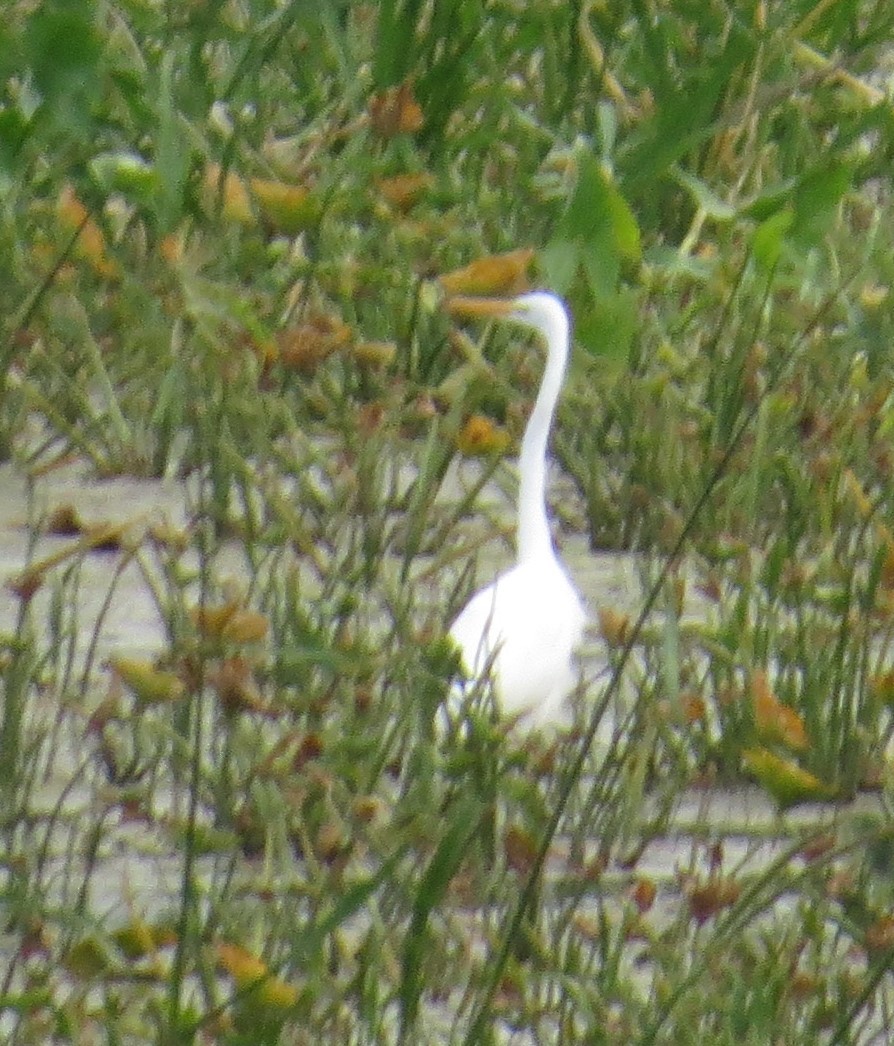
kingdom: Animalia
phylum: Chordata
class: Aves
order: Pelecaniformes
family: Ardeidae
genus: Ardea
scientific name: Ardea alba
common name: Great egret
